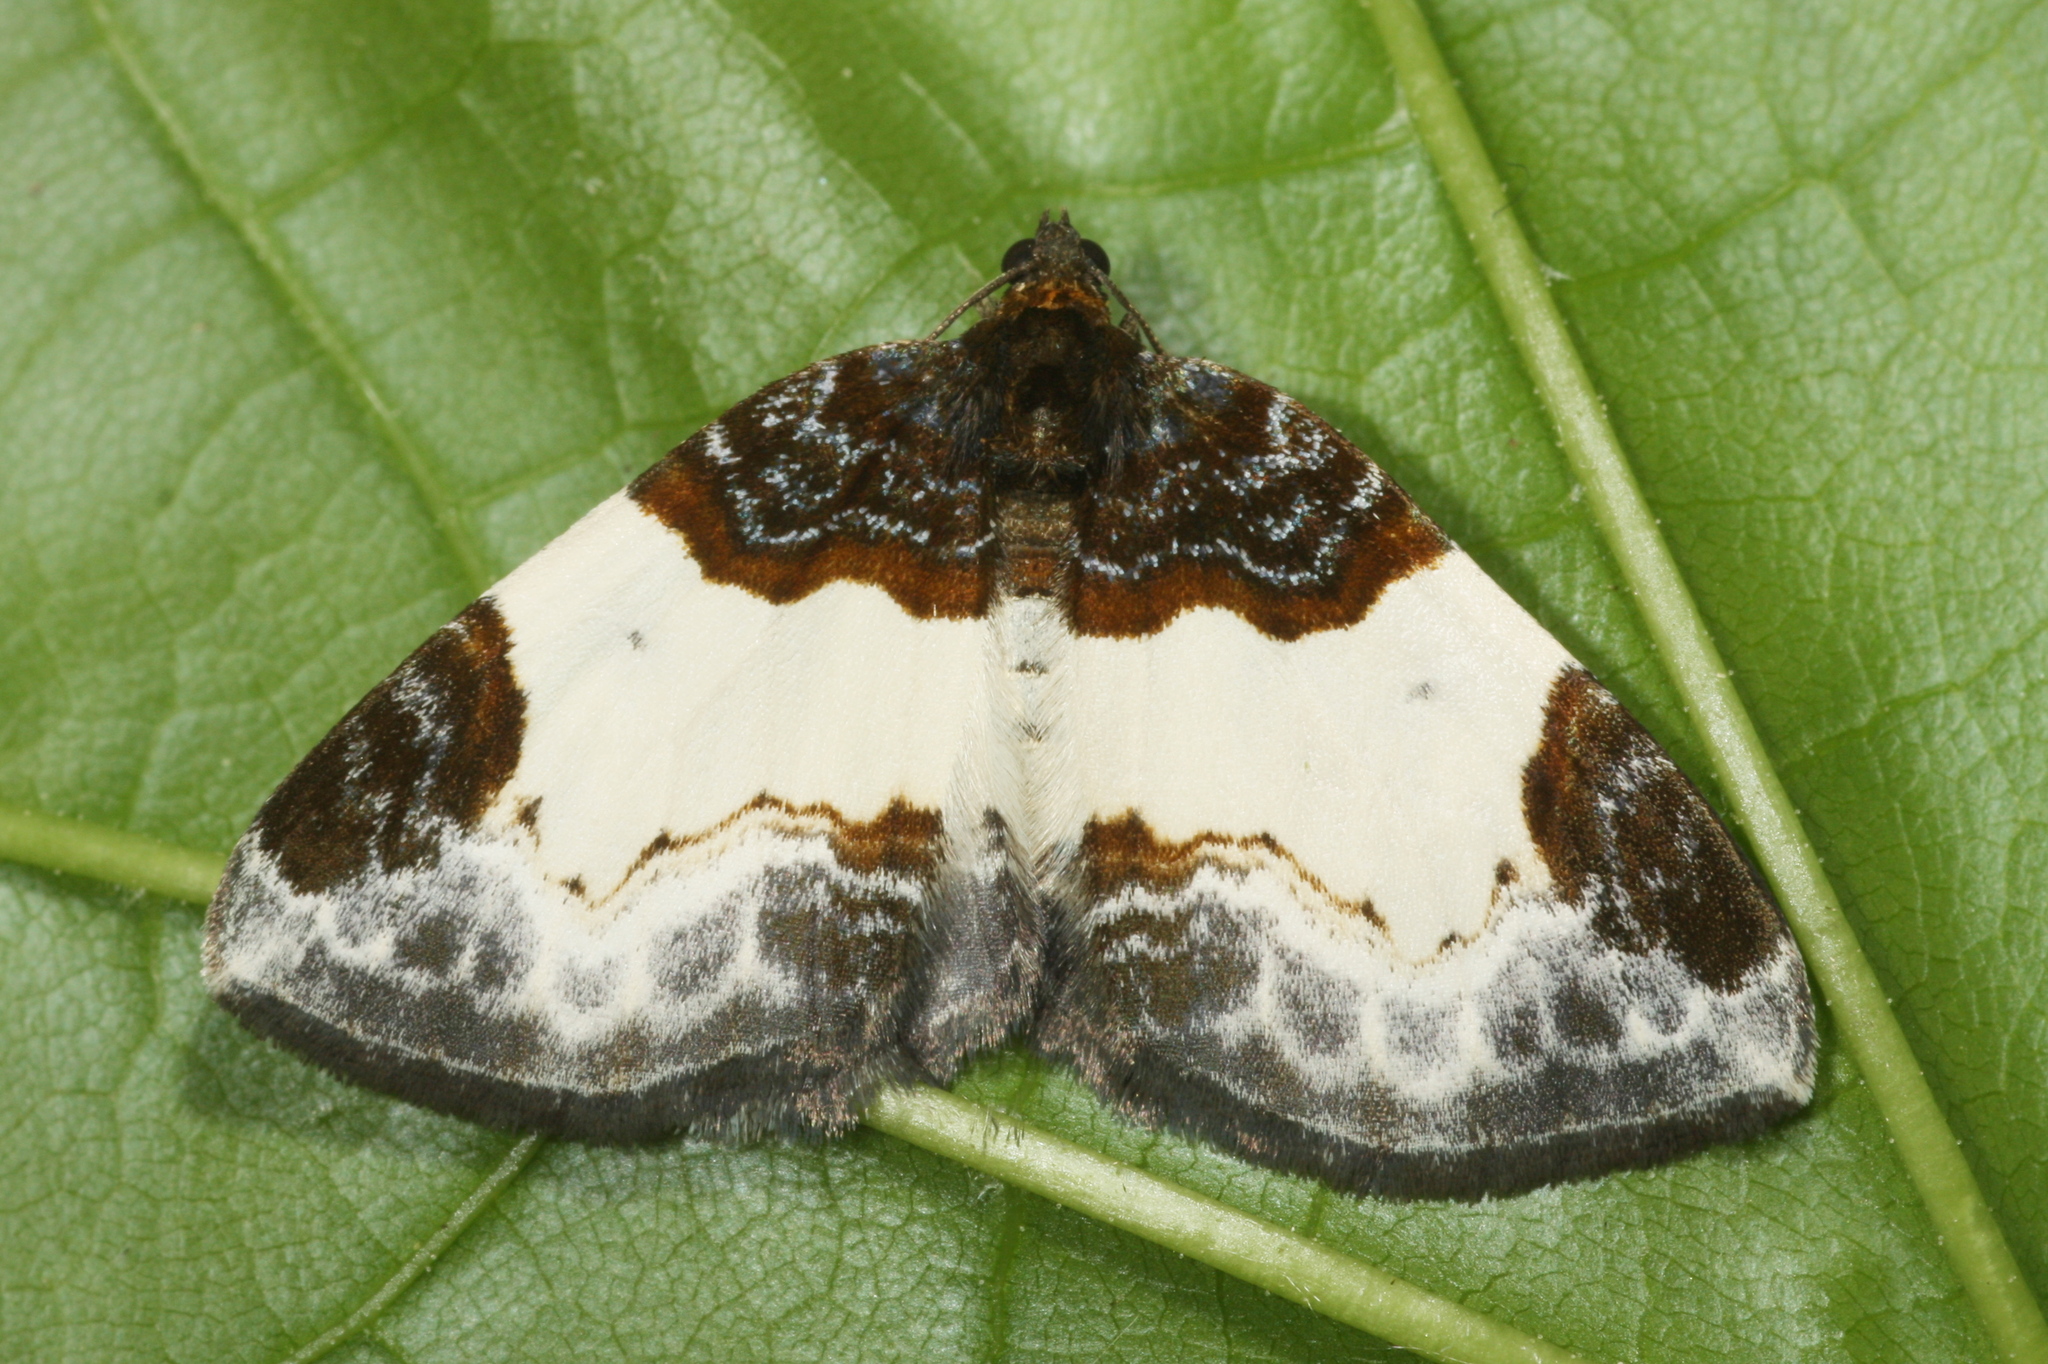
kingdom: Animalia
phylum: Arthropoda
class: Insecta
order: Lepidoptera
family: Geometridae
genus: Mesoleuca
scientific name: Mesoleuca albicillata
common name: Beautiful carpet
